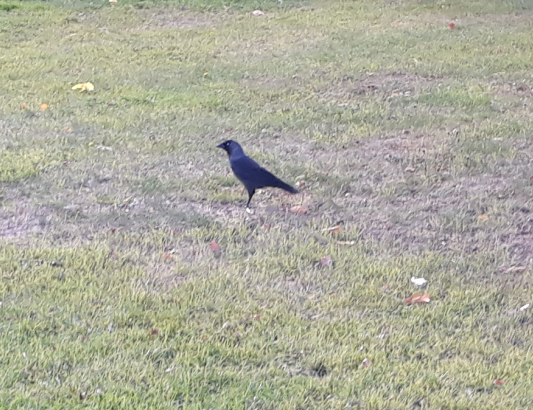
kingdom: Animalia
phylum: Chordata
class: Aves
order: Passeriformes
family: Corvidae
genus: Coloeus
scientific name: Coloeus monedula
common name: Western jackdaw
